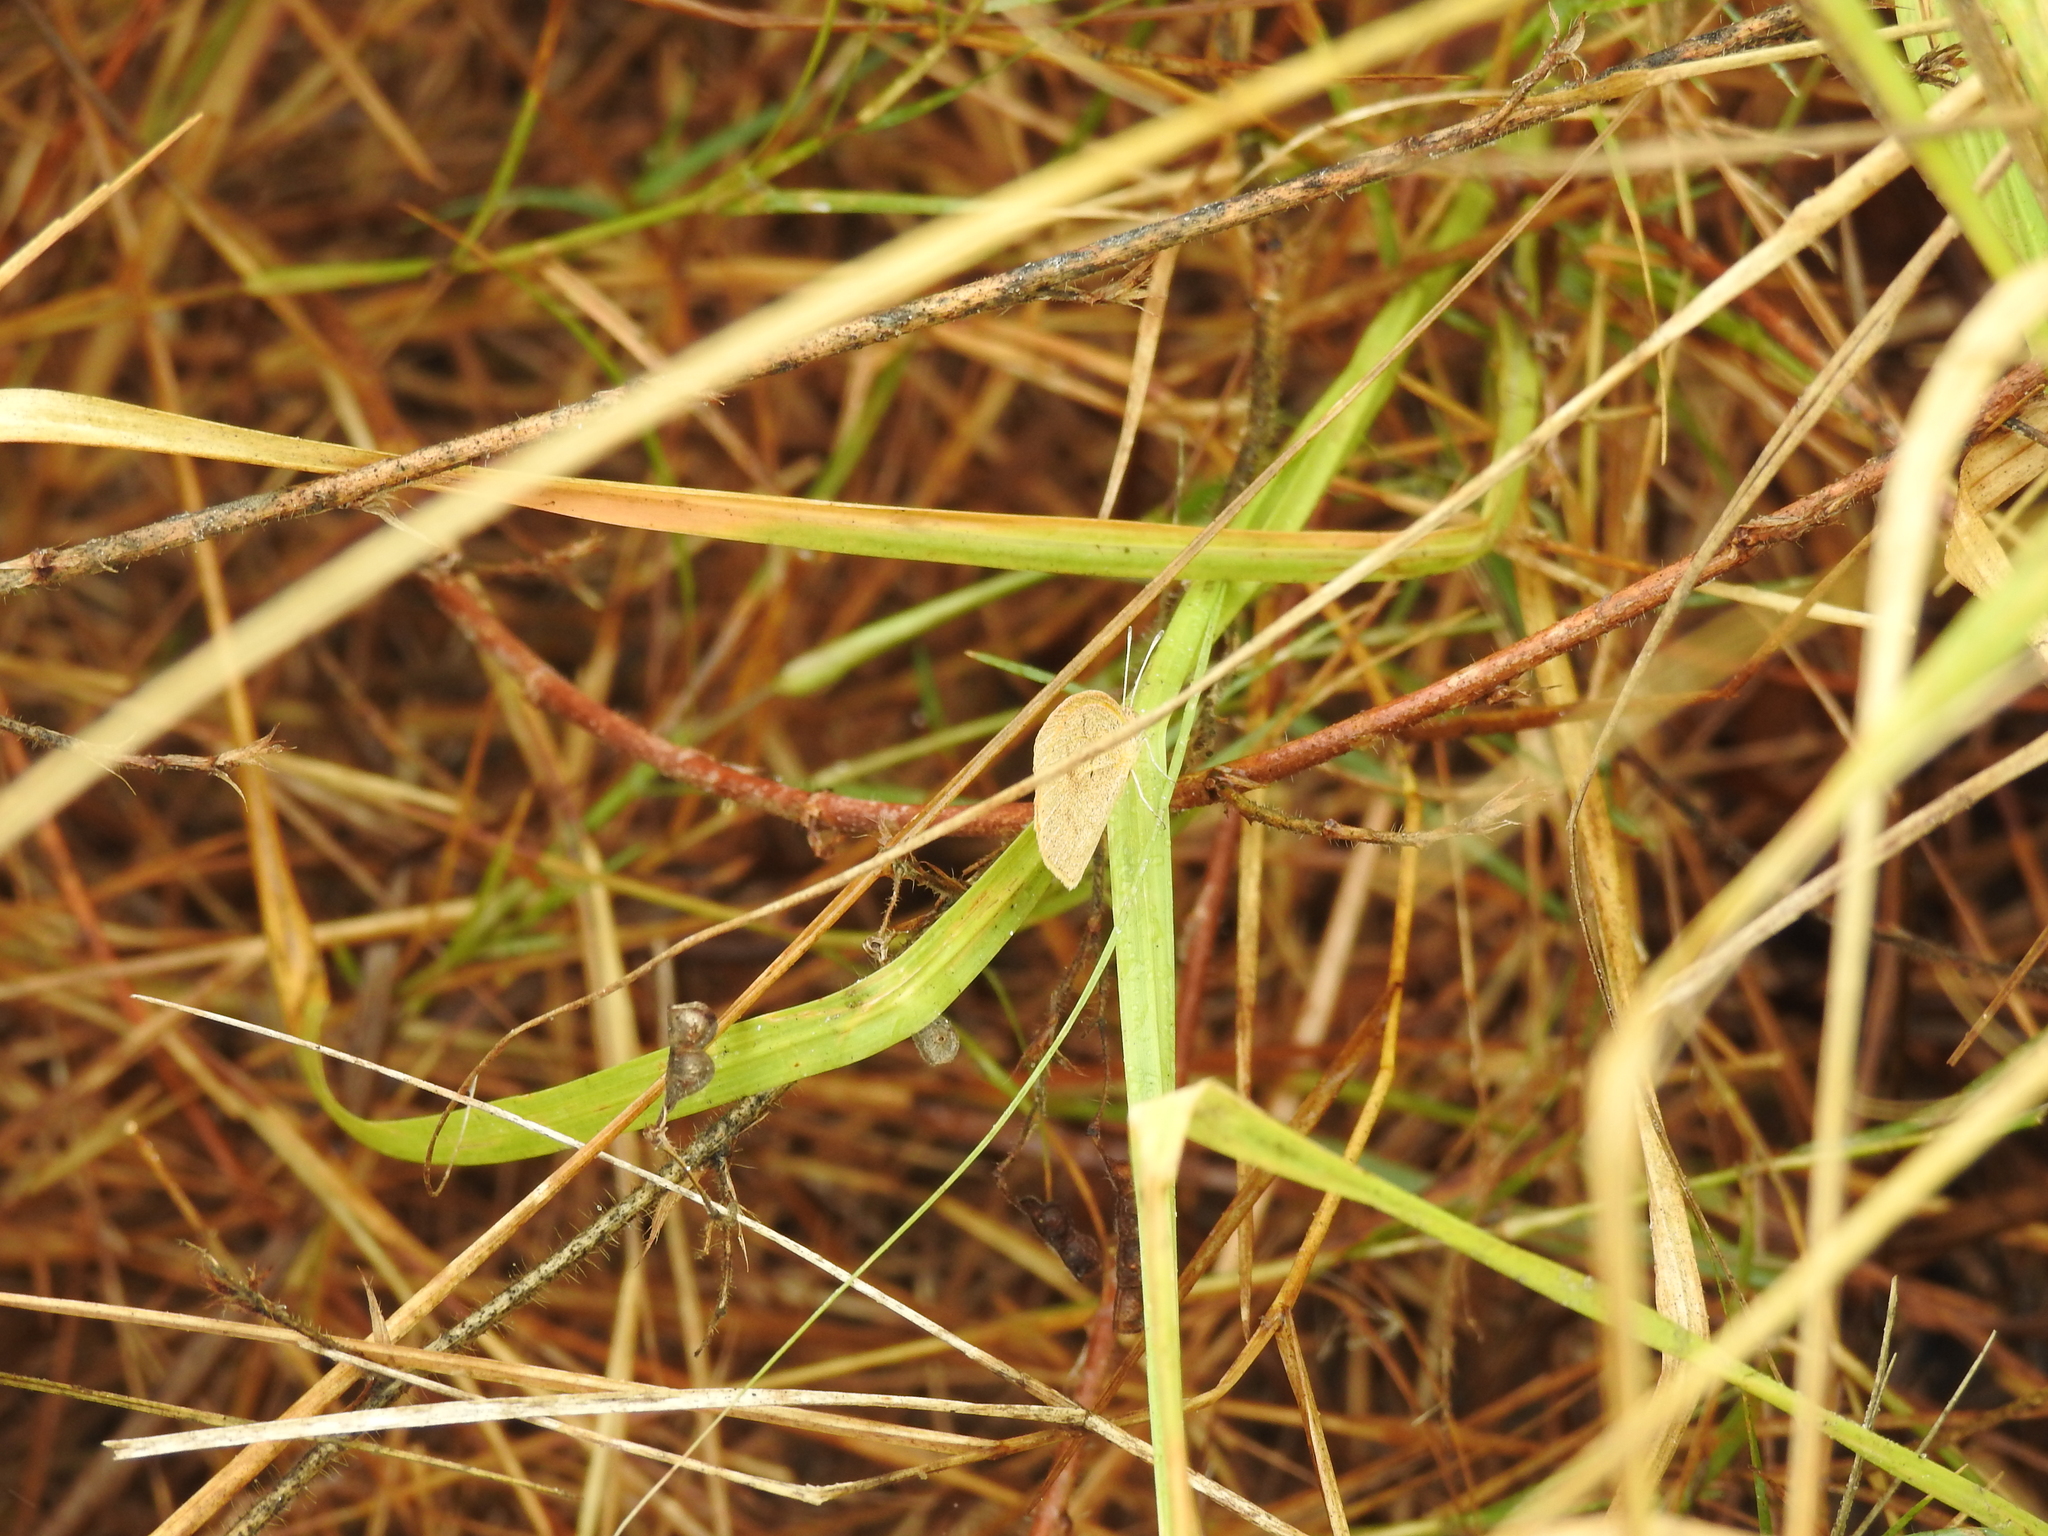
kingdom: Animalia
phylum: Arthropoda
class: Insecta
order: Lepidoptera
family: Pieridae
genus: Eurema
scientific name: Eurema daira
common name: Barred sulphur
